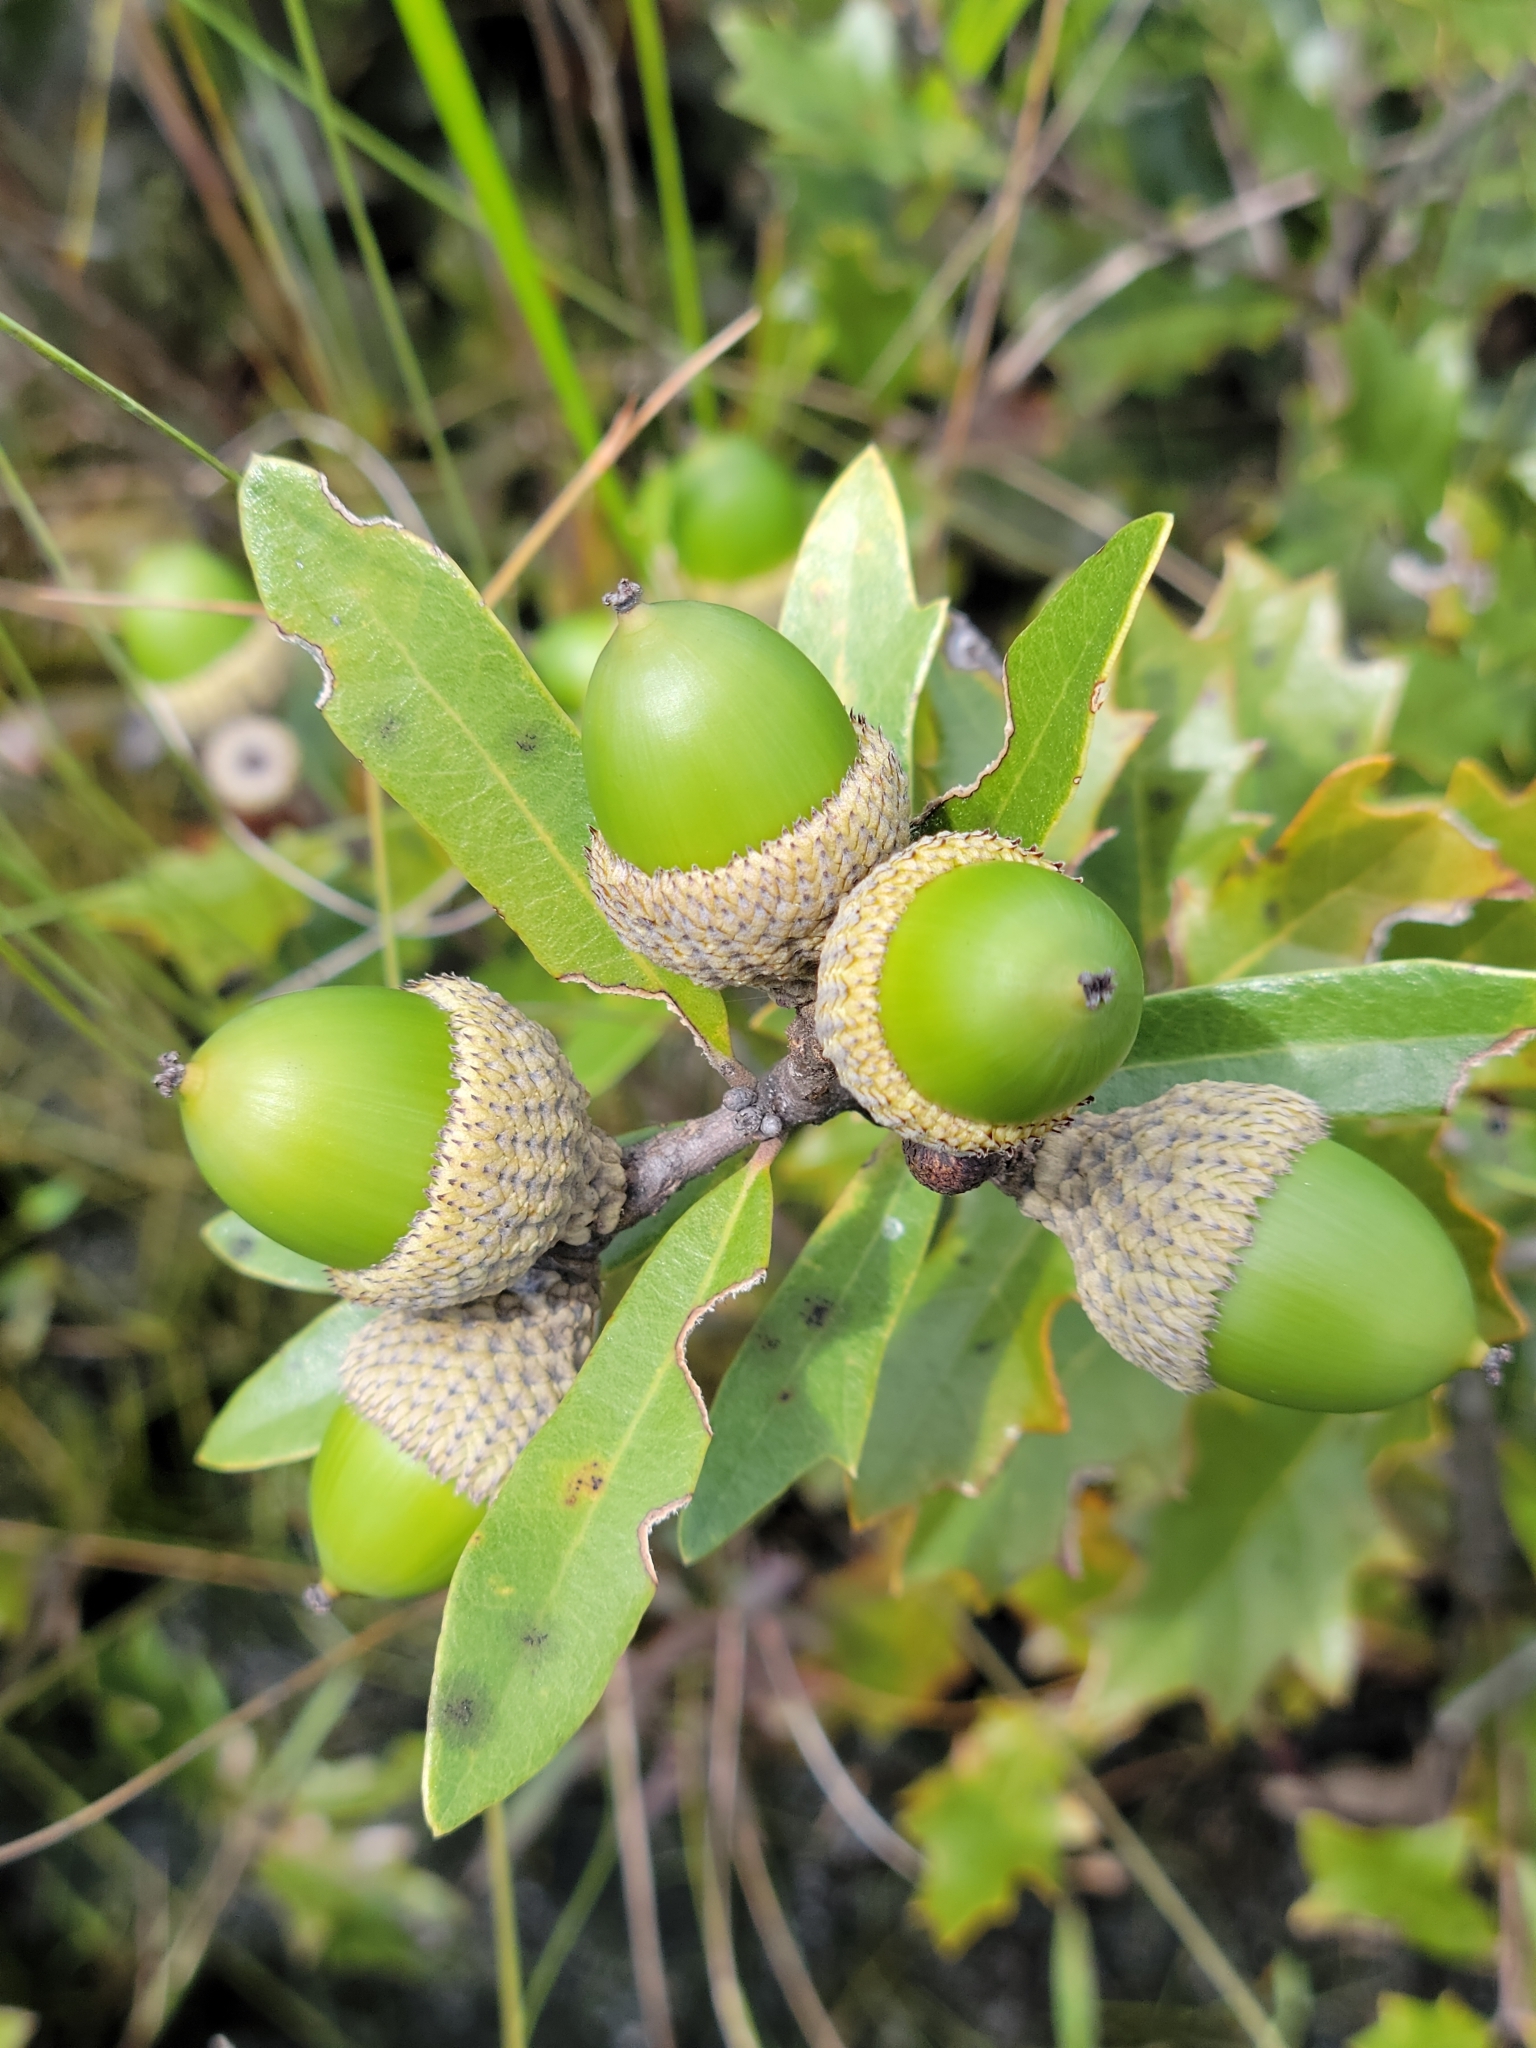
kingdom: Plantae
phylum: Tracheophyta
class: Magnoliopsida
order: Fagales
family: Fagaceae
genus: Quercus
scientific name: Quercus minima
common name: Dwarf live oak
